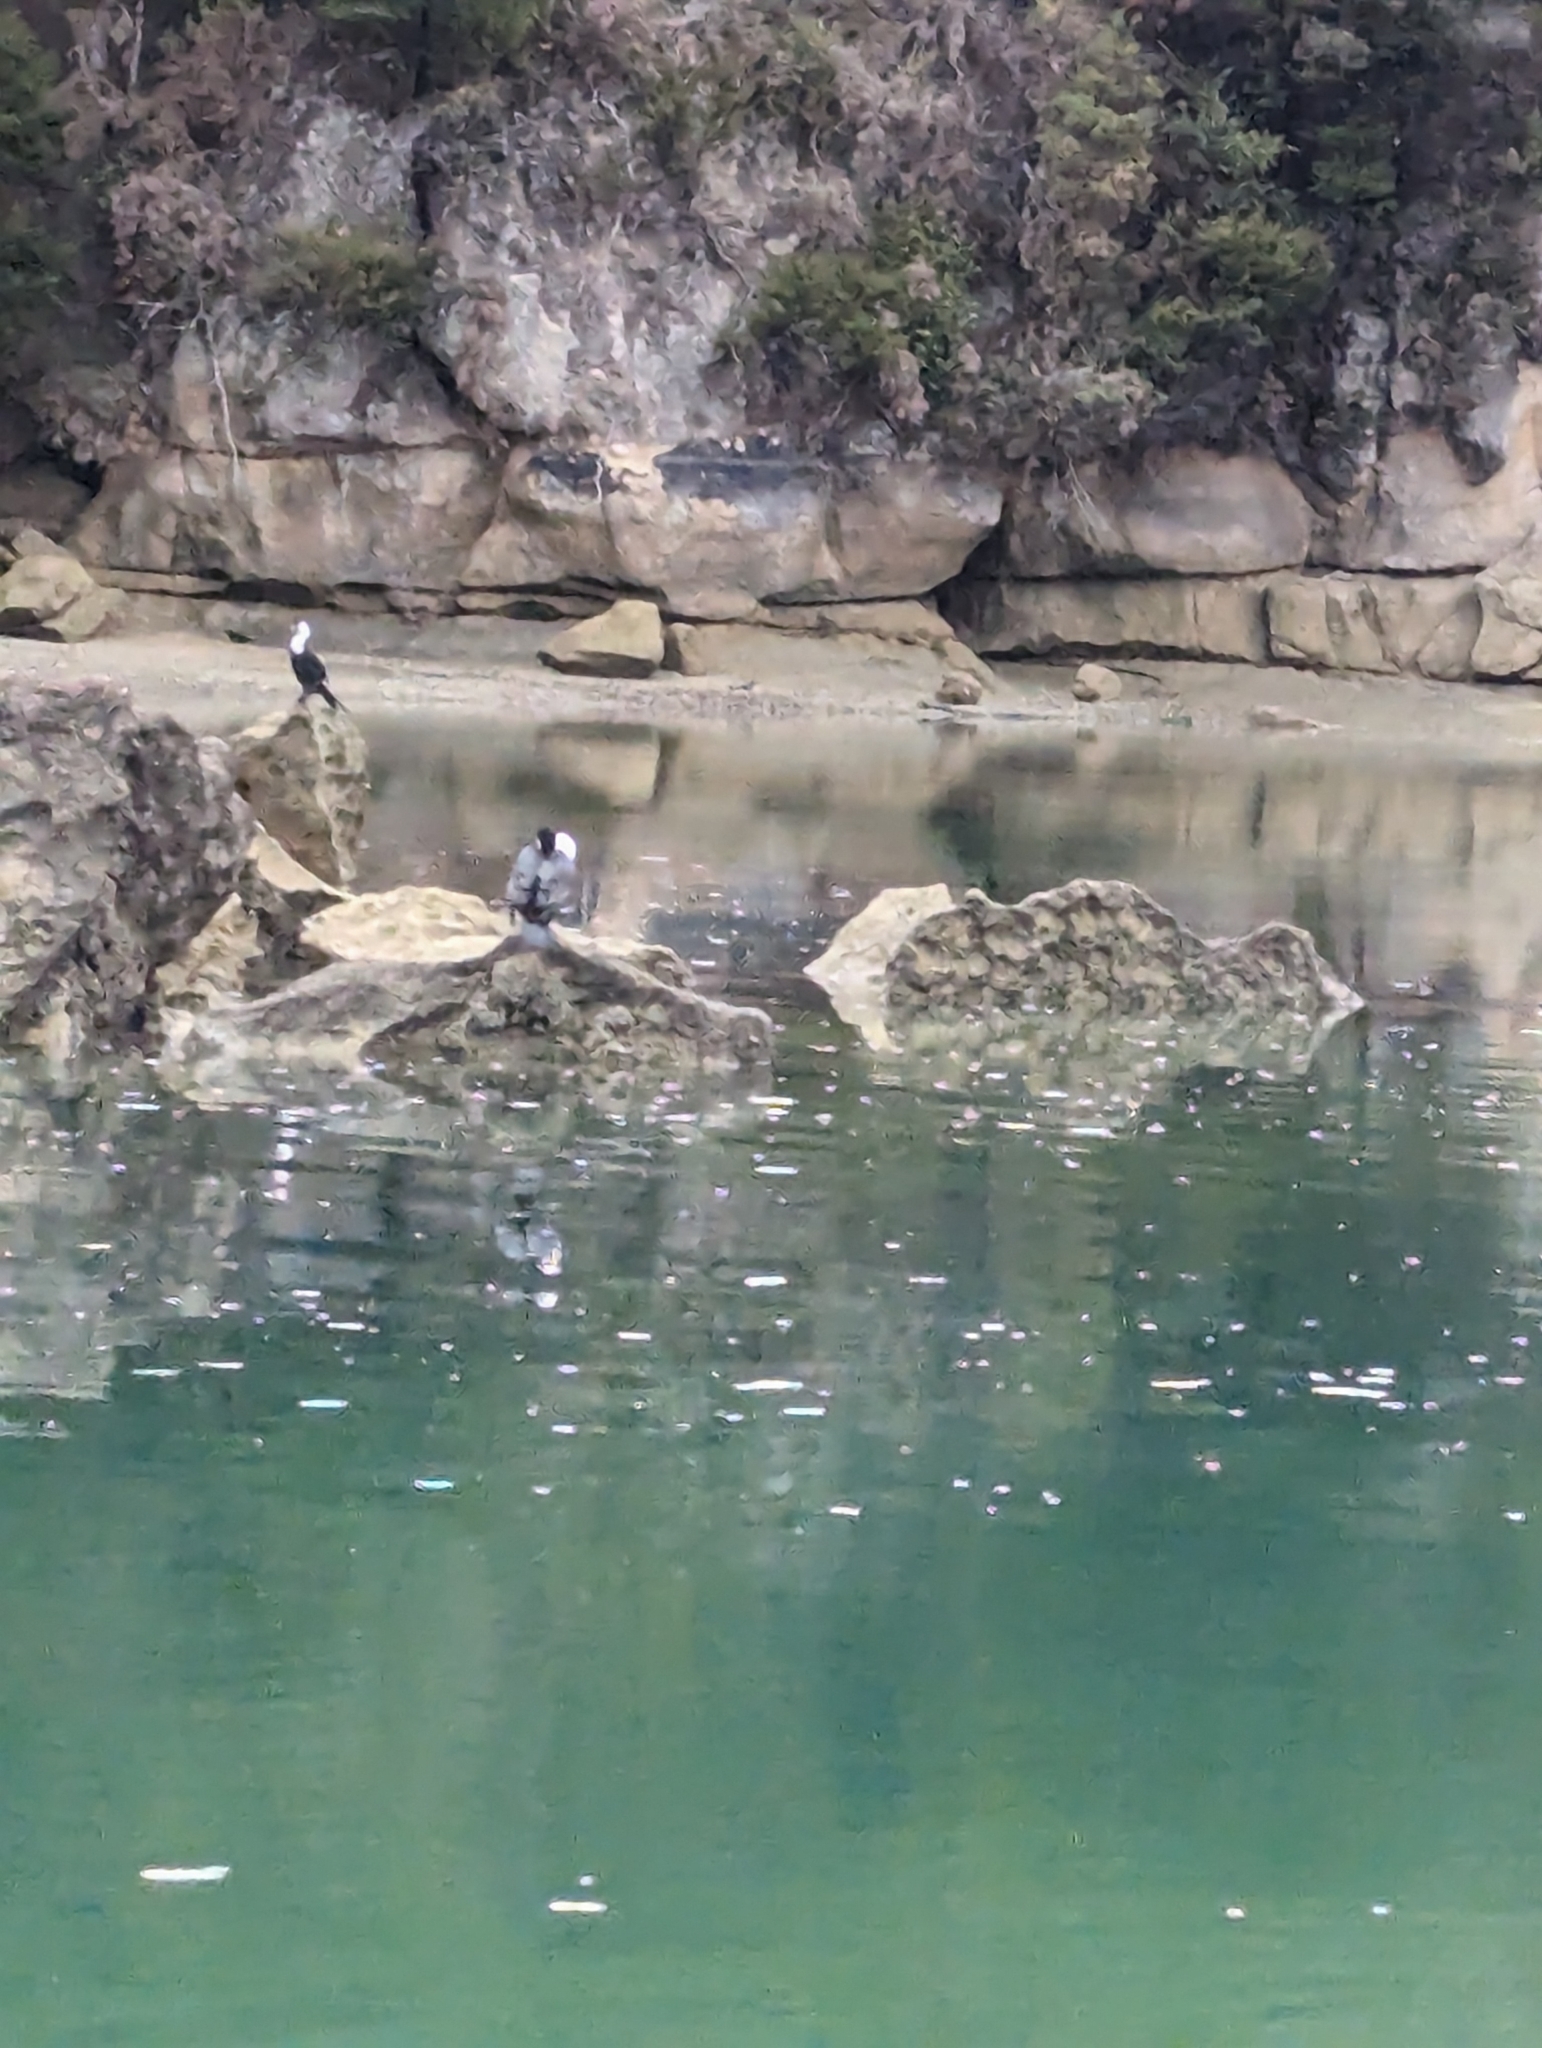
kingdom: Animalia
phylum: Chordata
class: Aves
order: Suliformes
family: Phalacrocoracidae
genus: Phalacrocorax
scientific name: Phalacrocorax varius
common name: Pied cormorant
